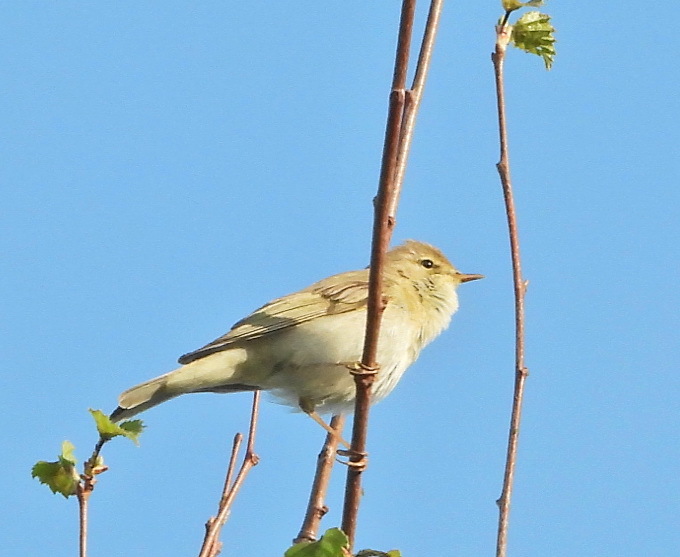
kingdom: Animalia
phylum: Chordata
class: Aves
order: Passeriformes
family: Phylloscopidae
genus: Phylloscopus
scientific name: Phylloscopus trochilus
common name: Willow warbler
